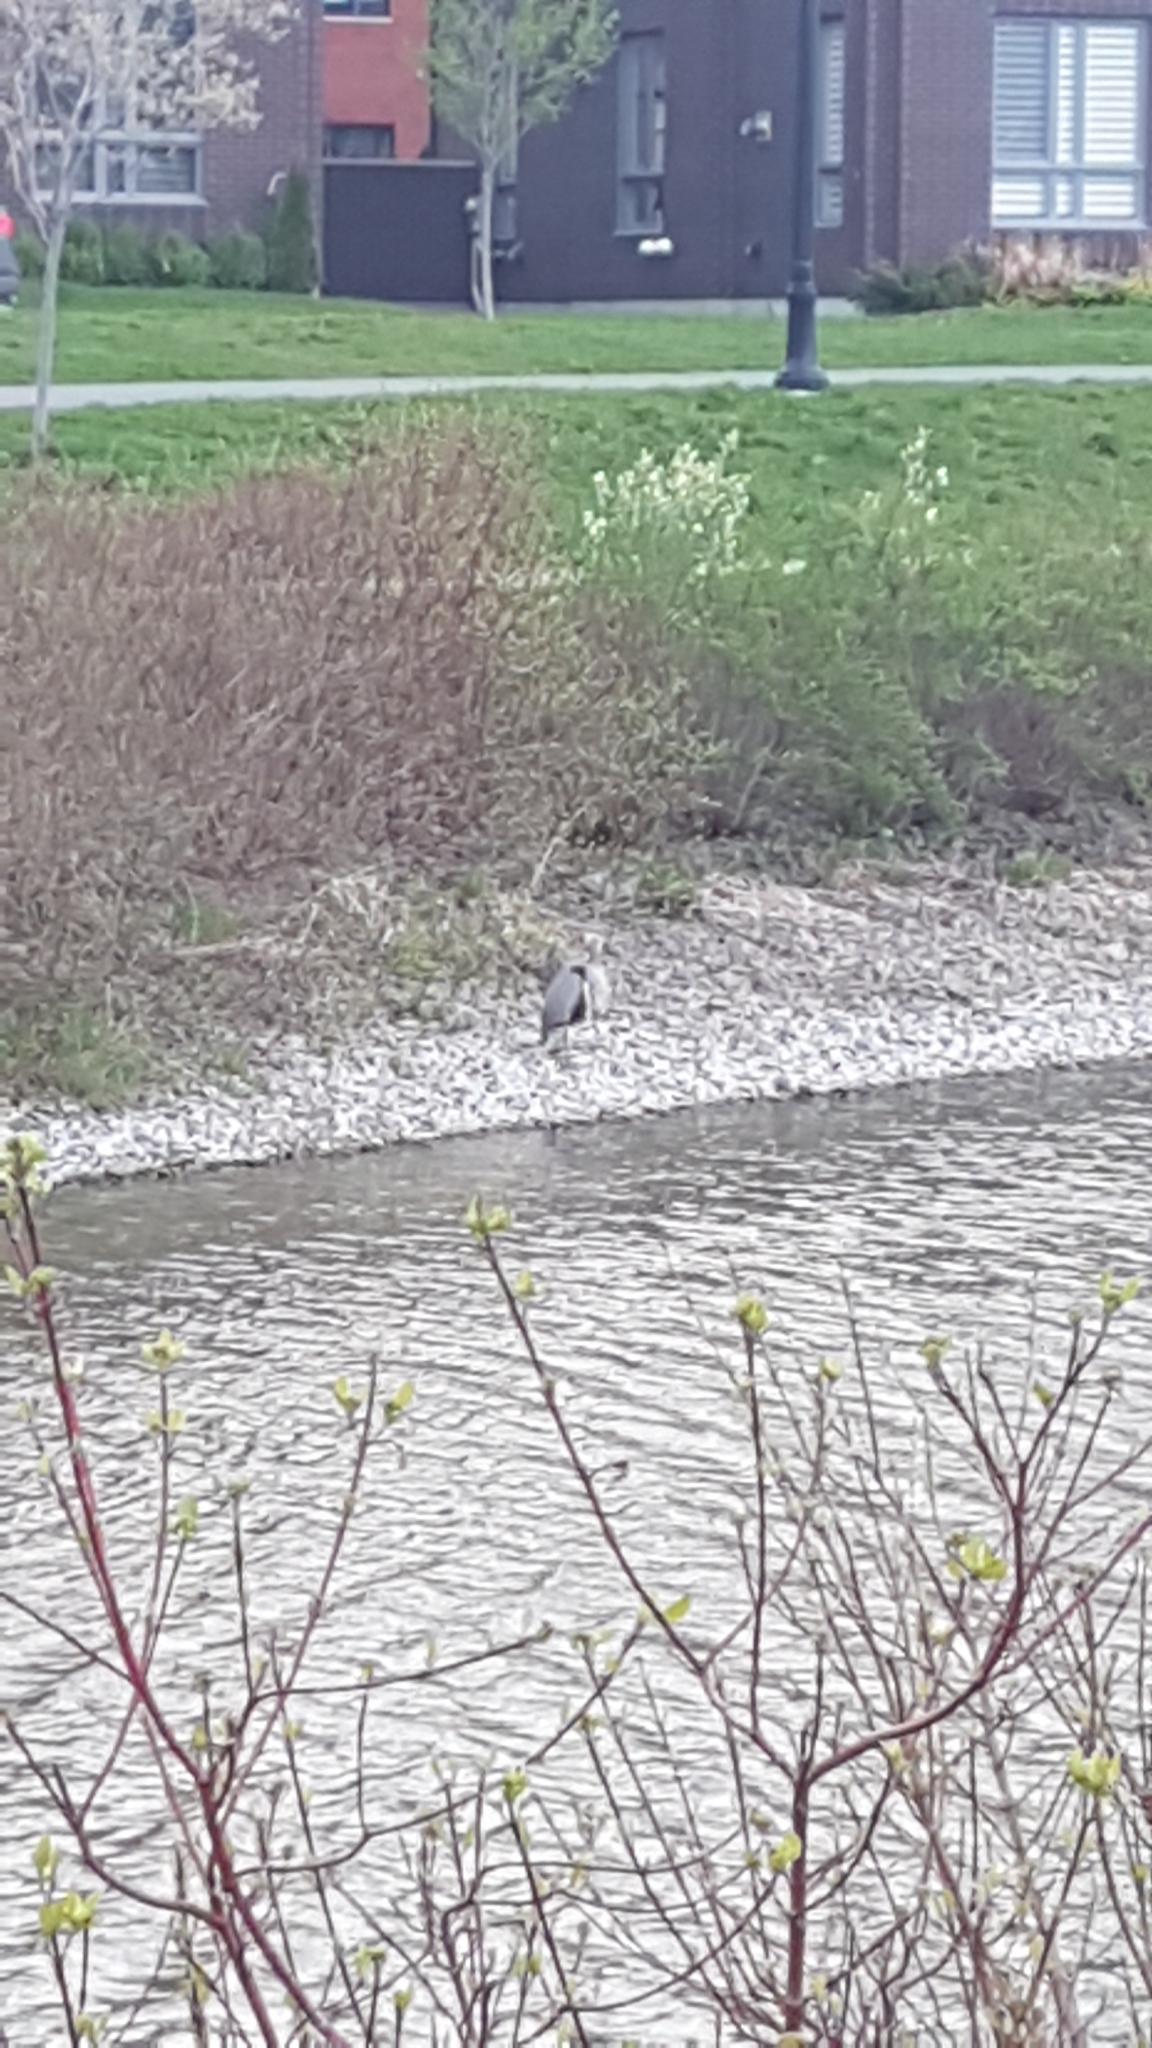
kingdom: Animalia
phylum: Chordata
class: Aves
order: Pelecaniformes
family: Ardeidae
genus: Ardea
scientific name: Ardea herodias
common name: Great blue heron
